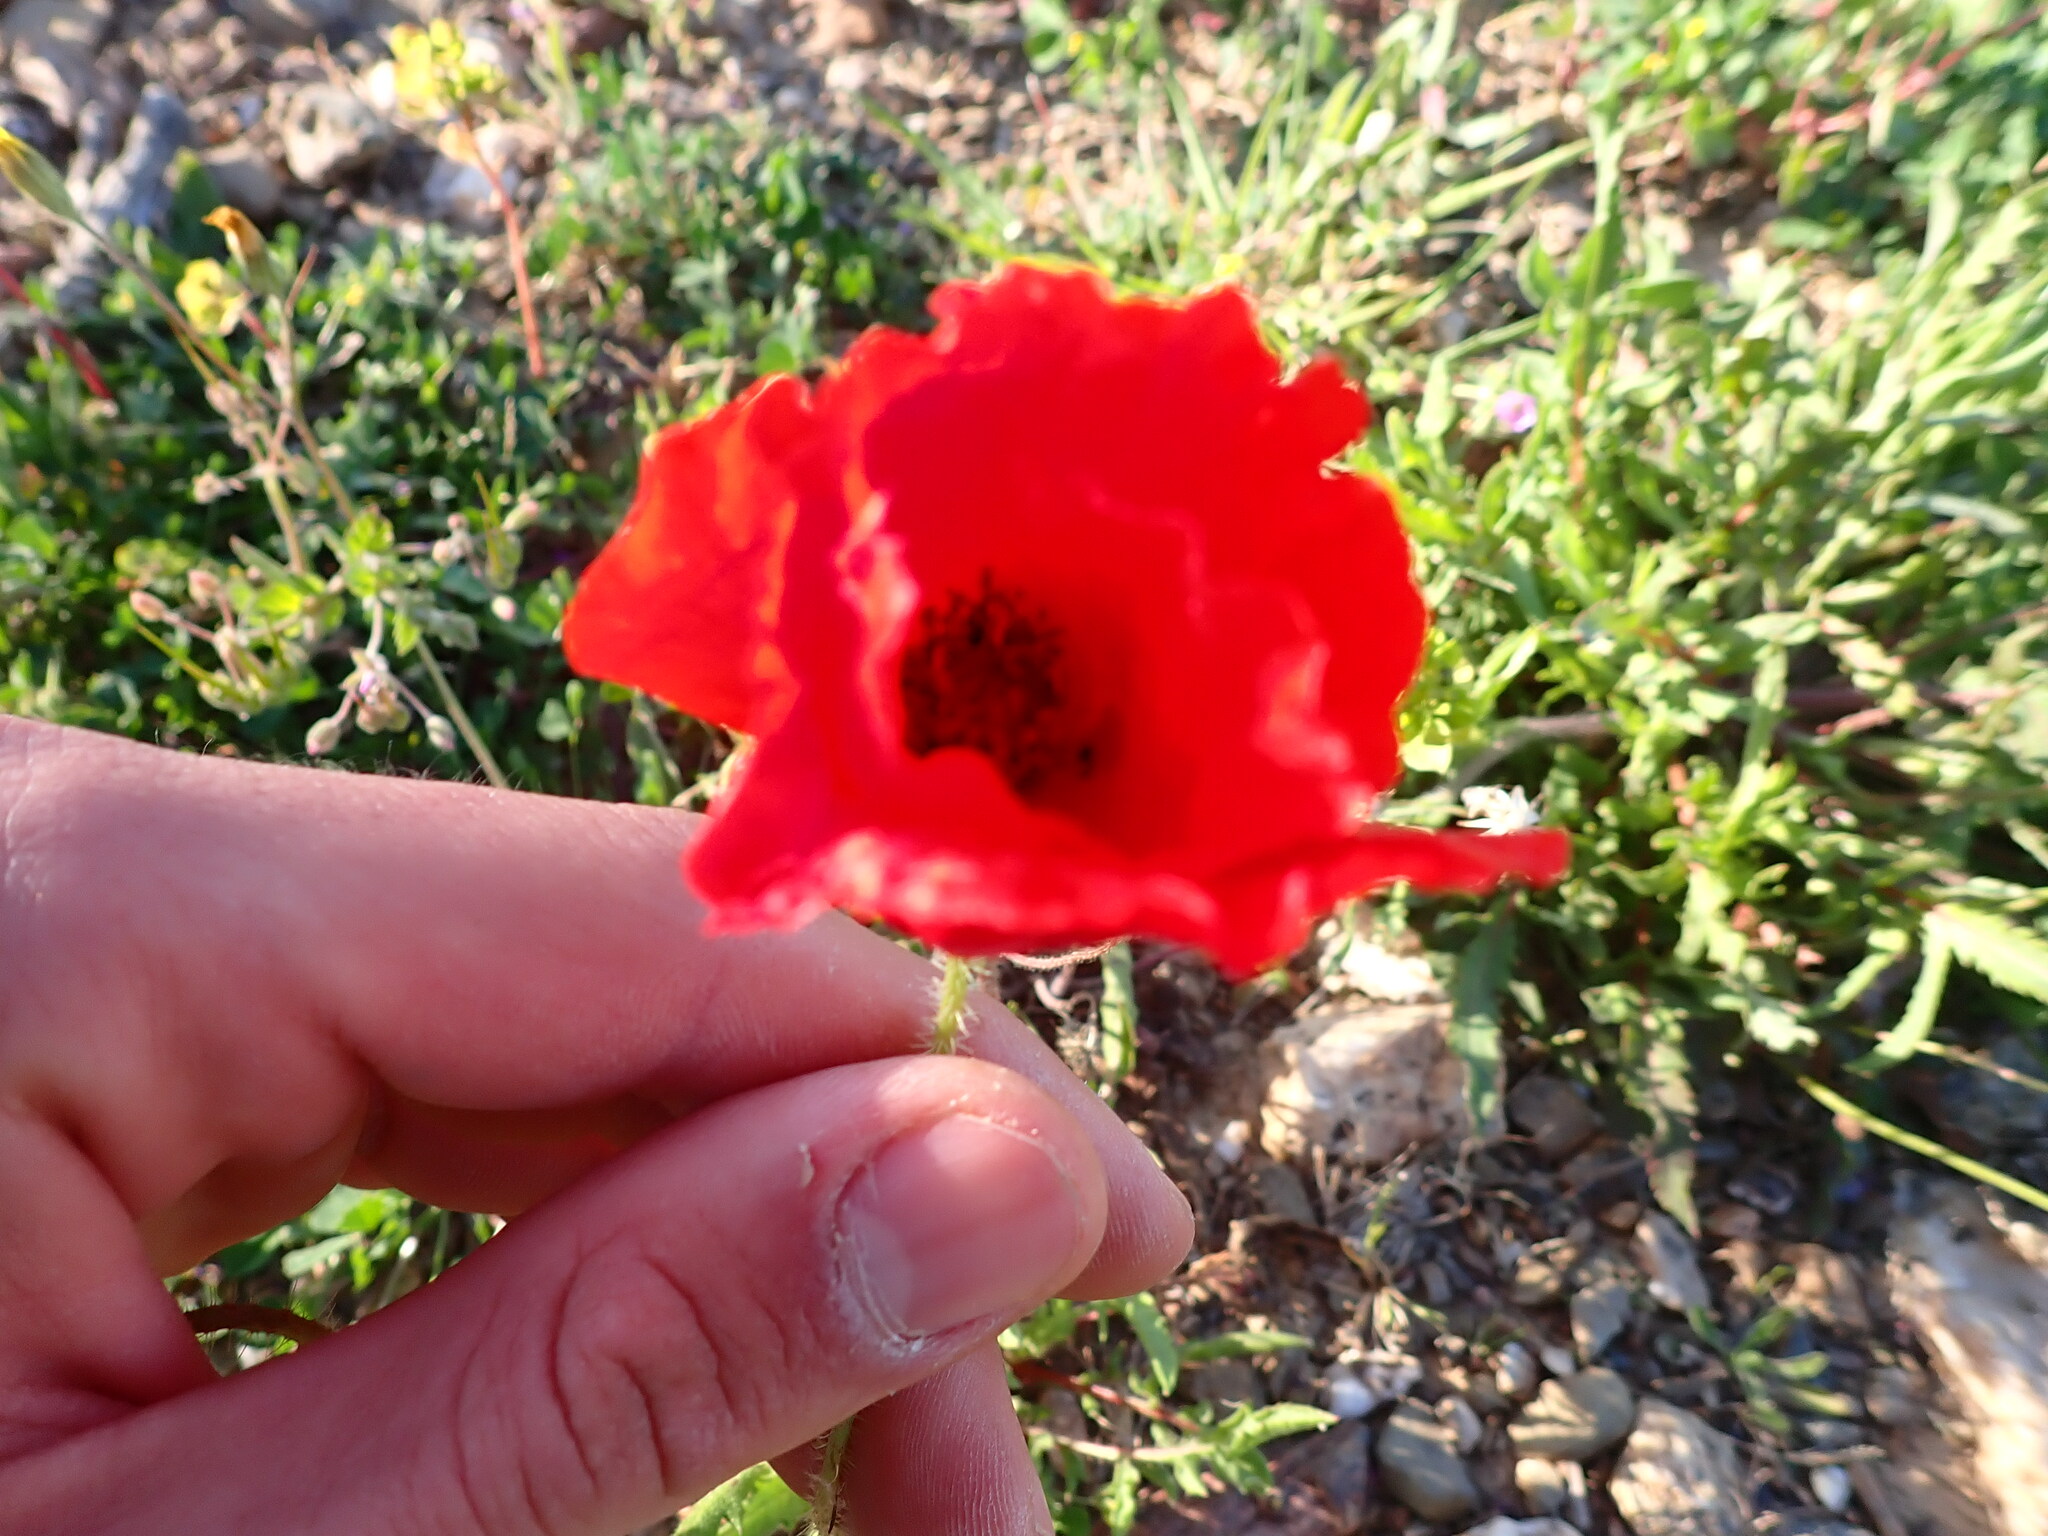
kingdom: Plantae
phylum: Tracheophyta
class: Magnoliopsida
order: Ranunculales
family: Papaveraceae
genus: Papaver
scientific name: Papaver rhoeas
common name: Corn poppy
